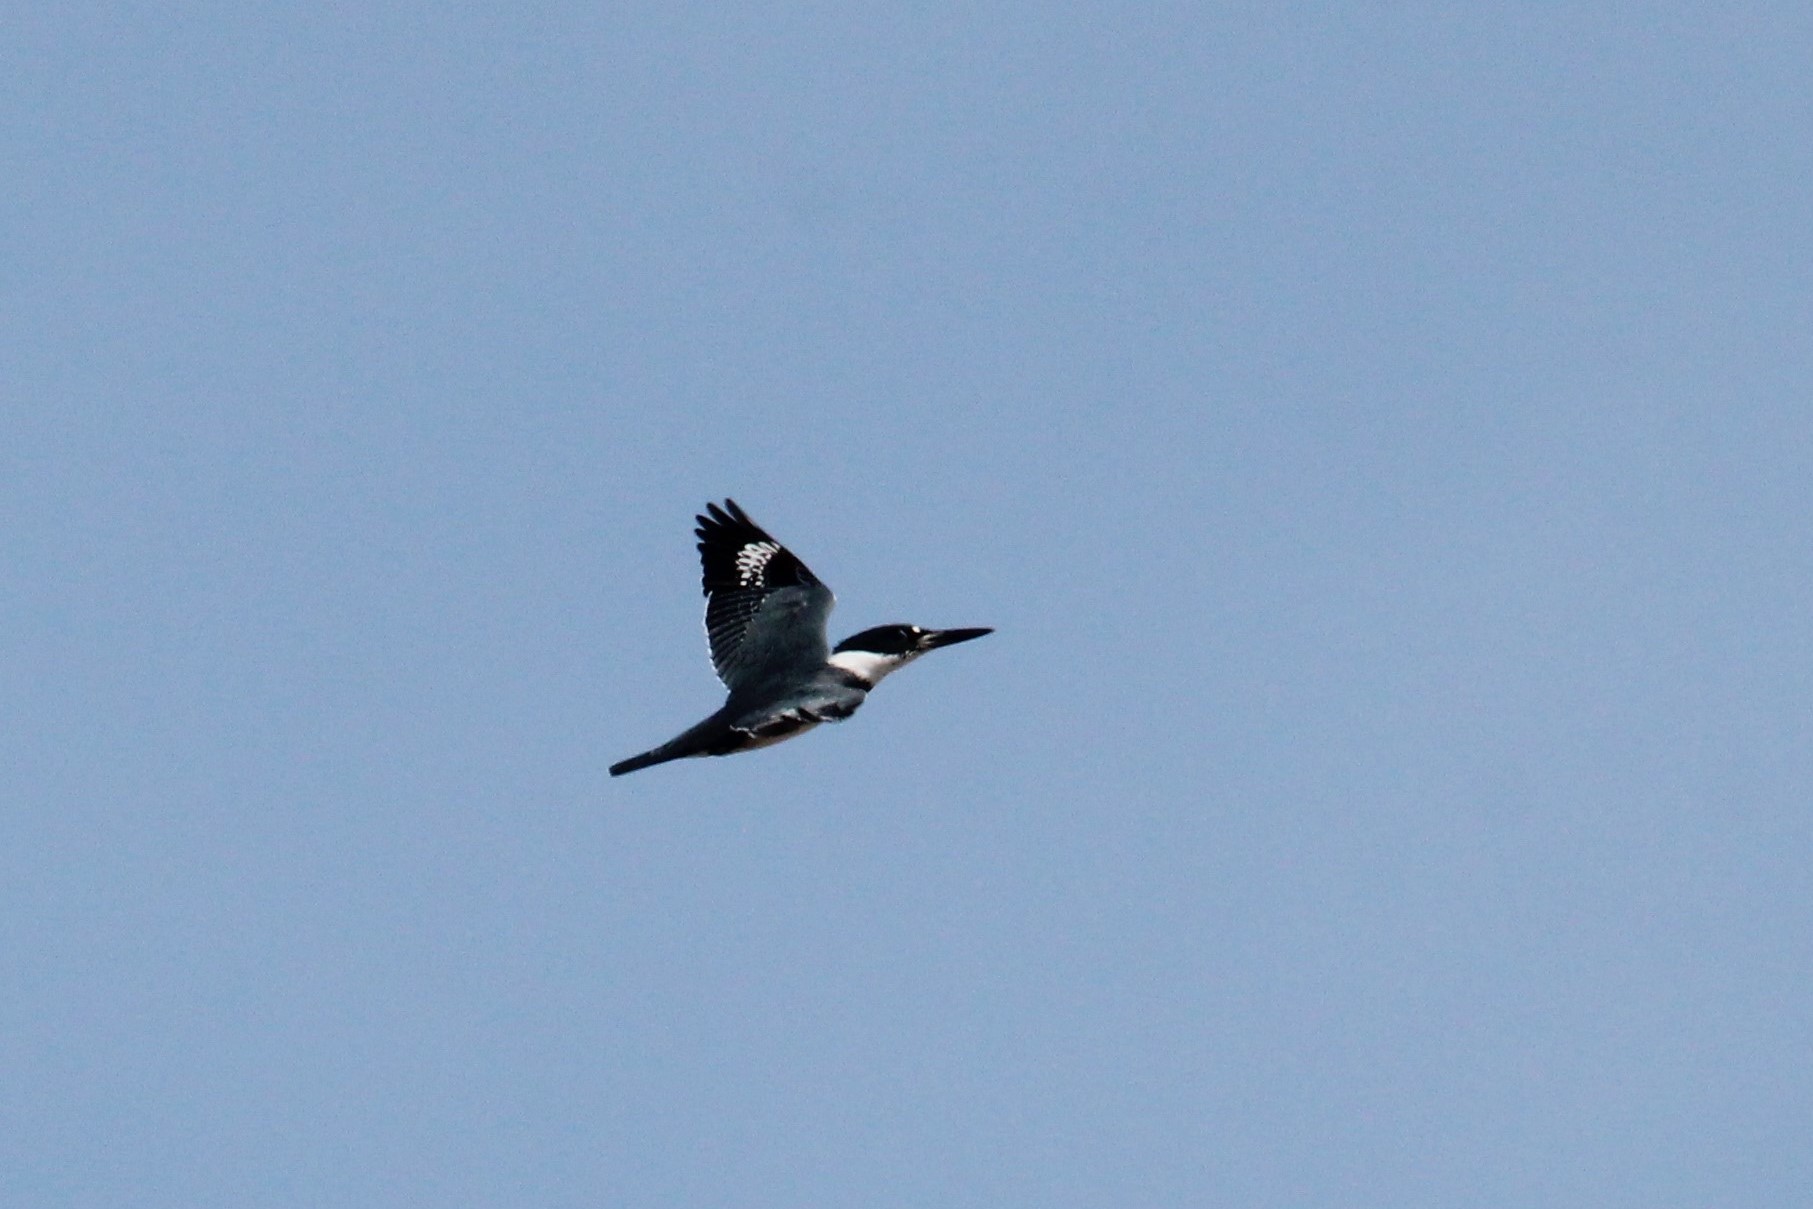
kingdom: Animalia
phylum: Chordata
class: Aves
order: Coraciiformes
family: Alcedinidae
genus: Megaceryle
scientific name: Megaceryle alcyon
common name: Belted kingfisher
